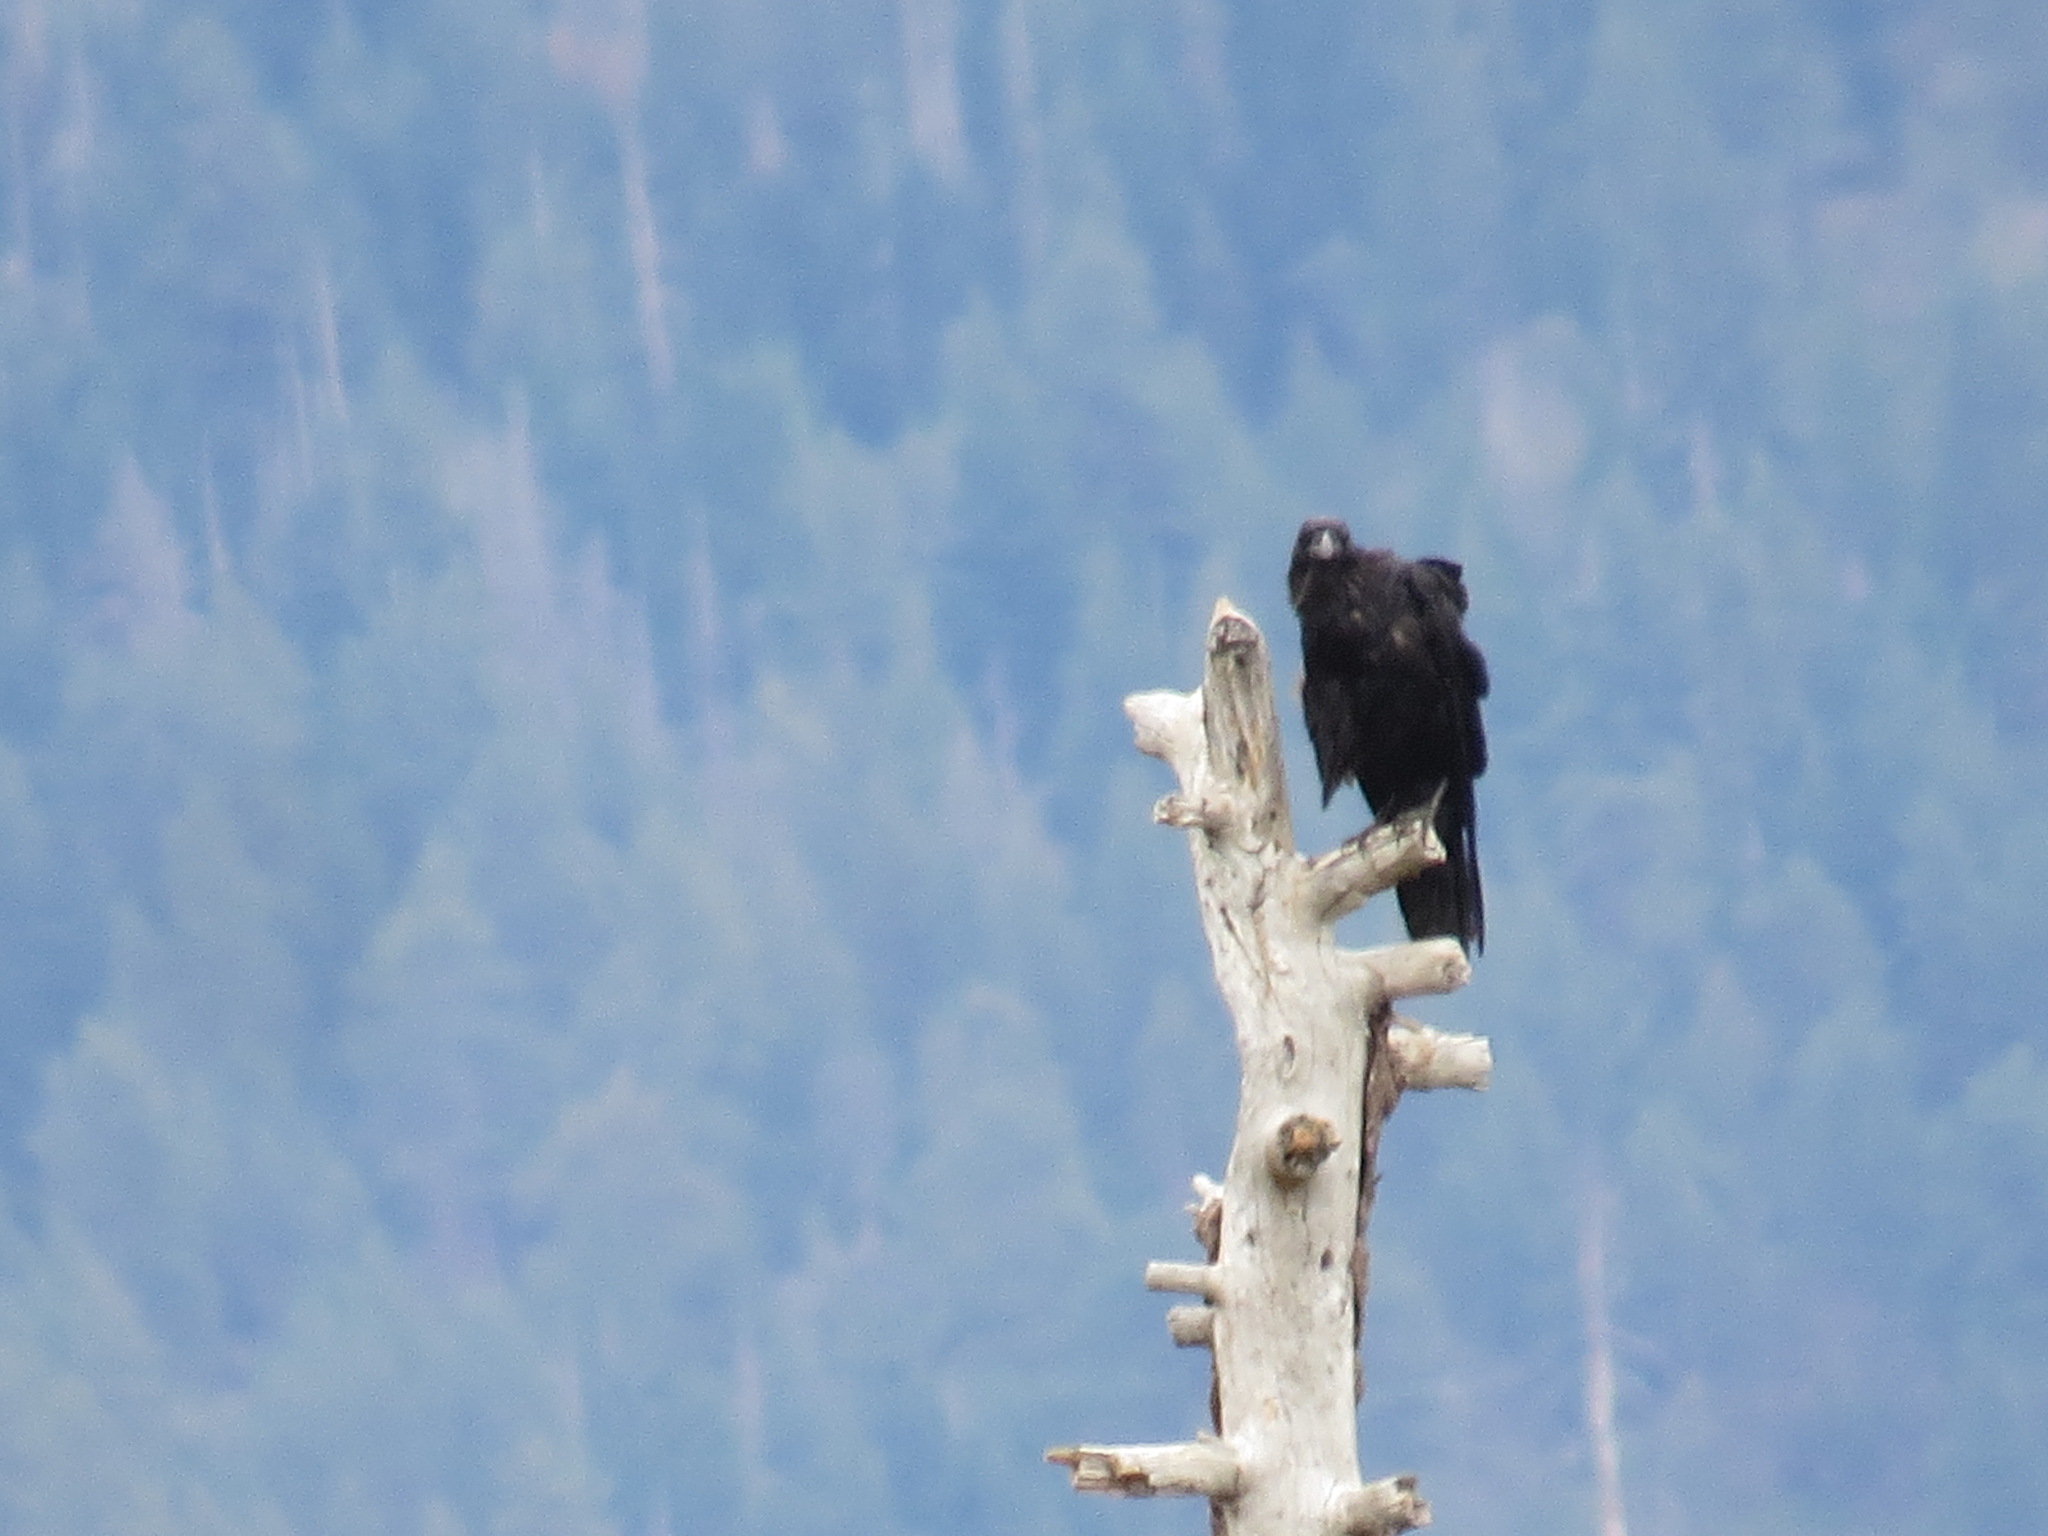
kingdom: Animalia
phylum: Chordata
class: Aves
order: Passeriformes
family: Corvidae
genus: Corvus
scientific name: Corvus corax
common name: Common raven
